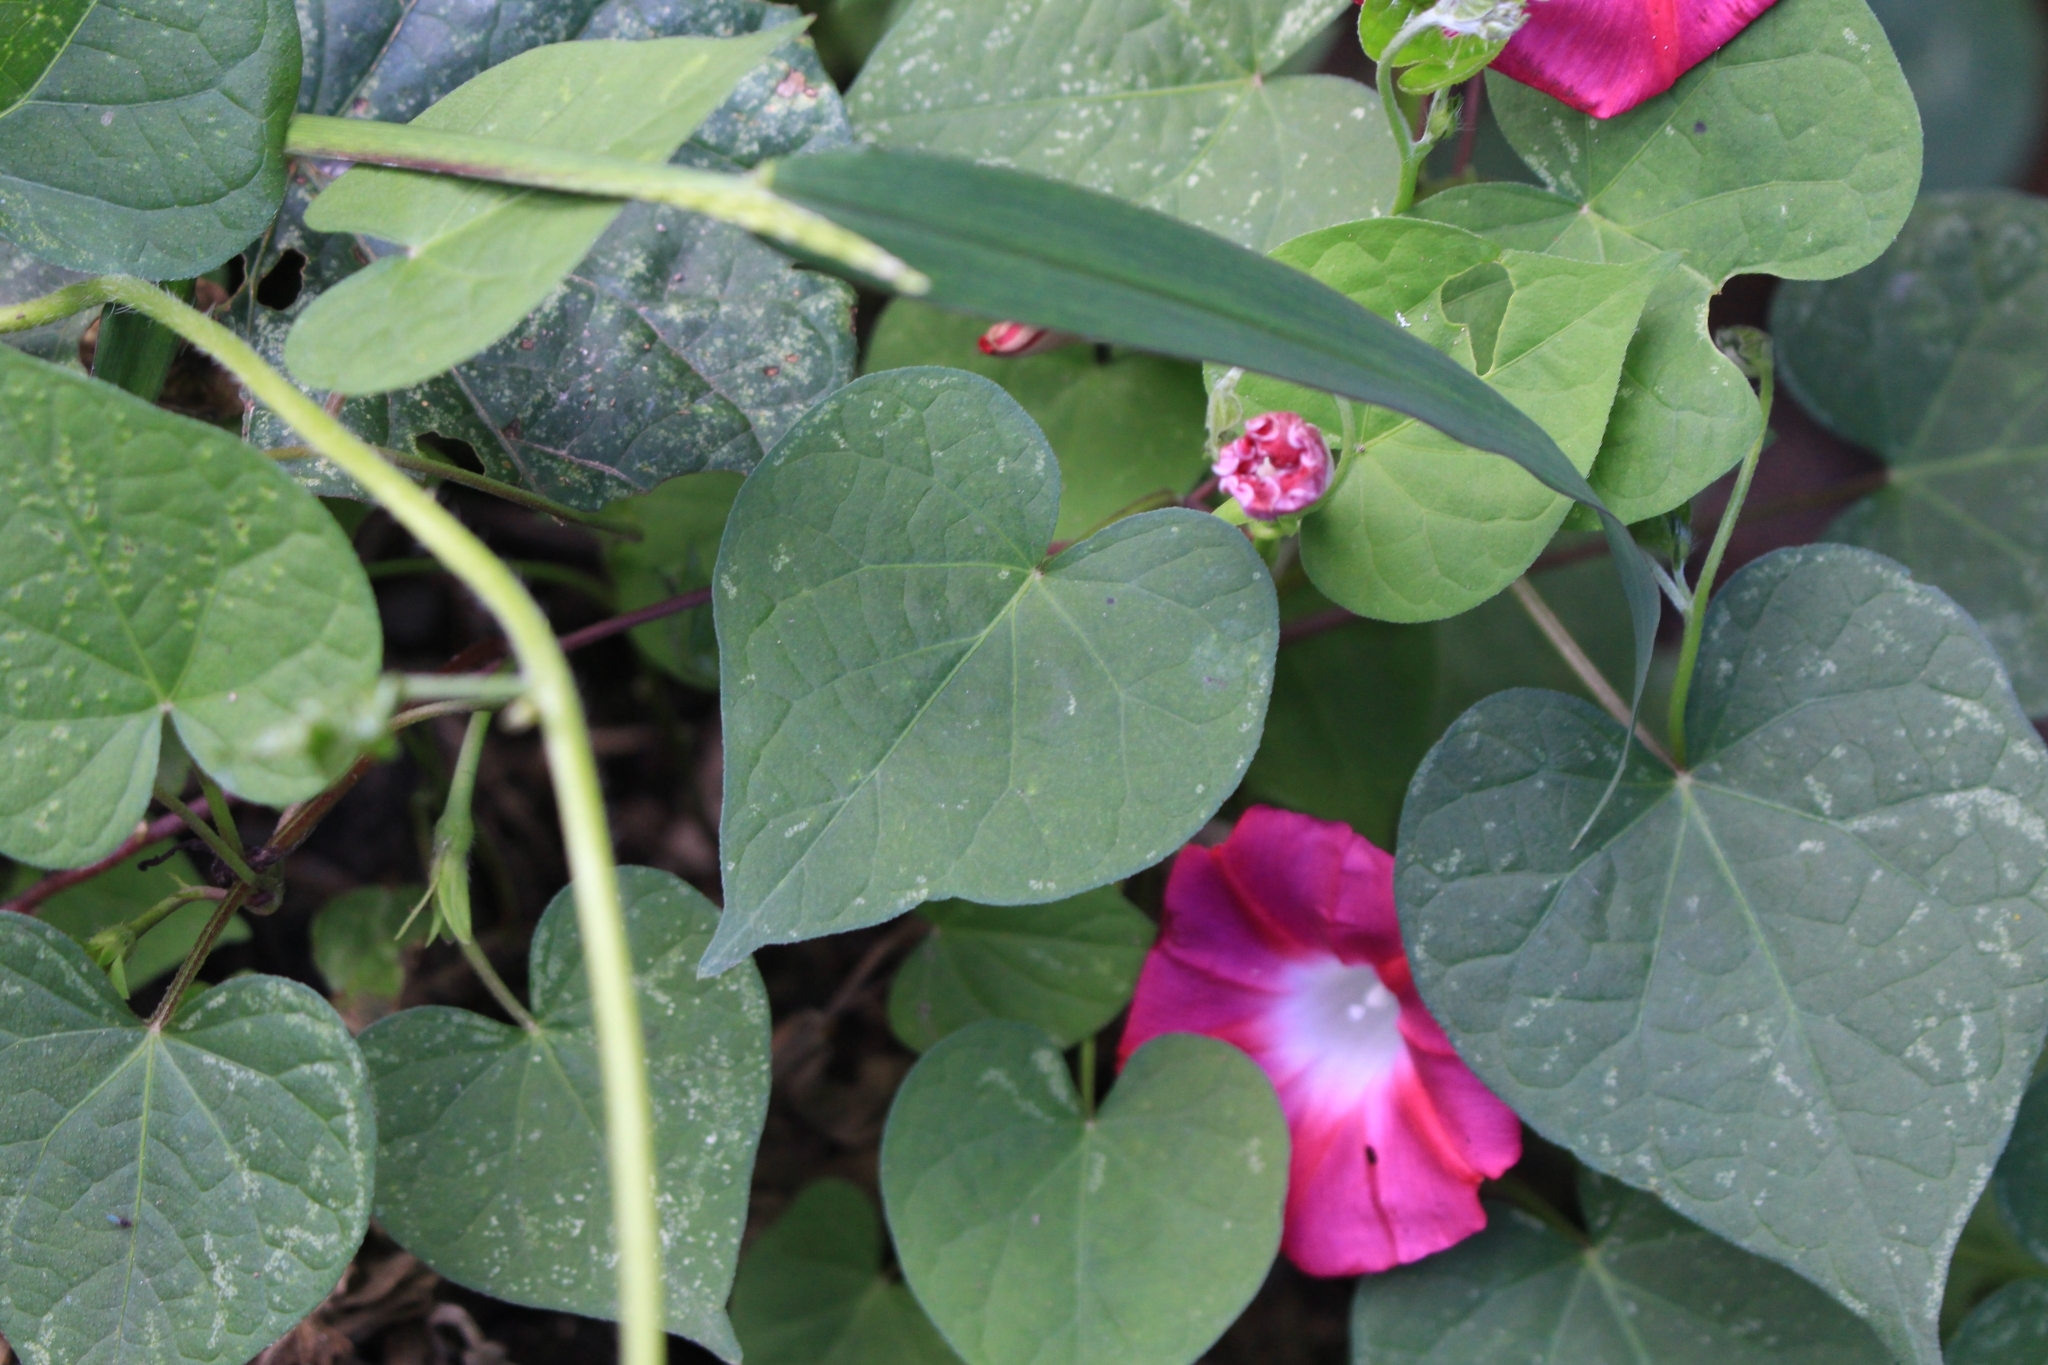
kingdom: Plantae
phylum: Tracheophyta
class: Magnoliopsida
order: Solanales
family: Convolvulaceae
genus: Ipomoea
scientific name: Ipomoea purpurea
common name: Common morning-glory
